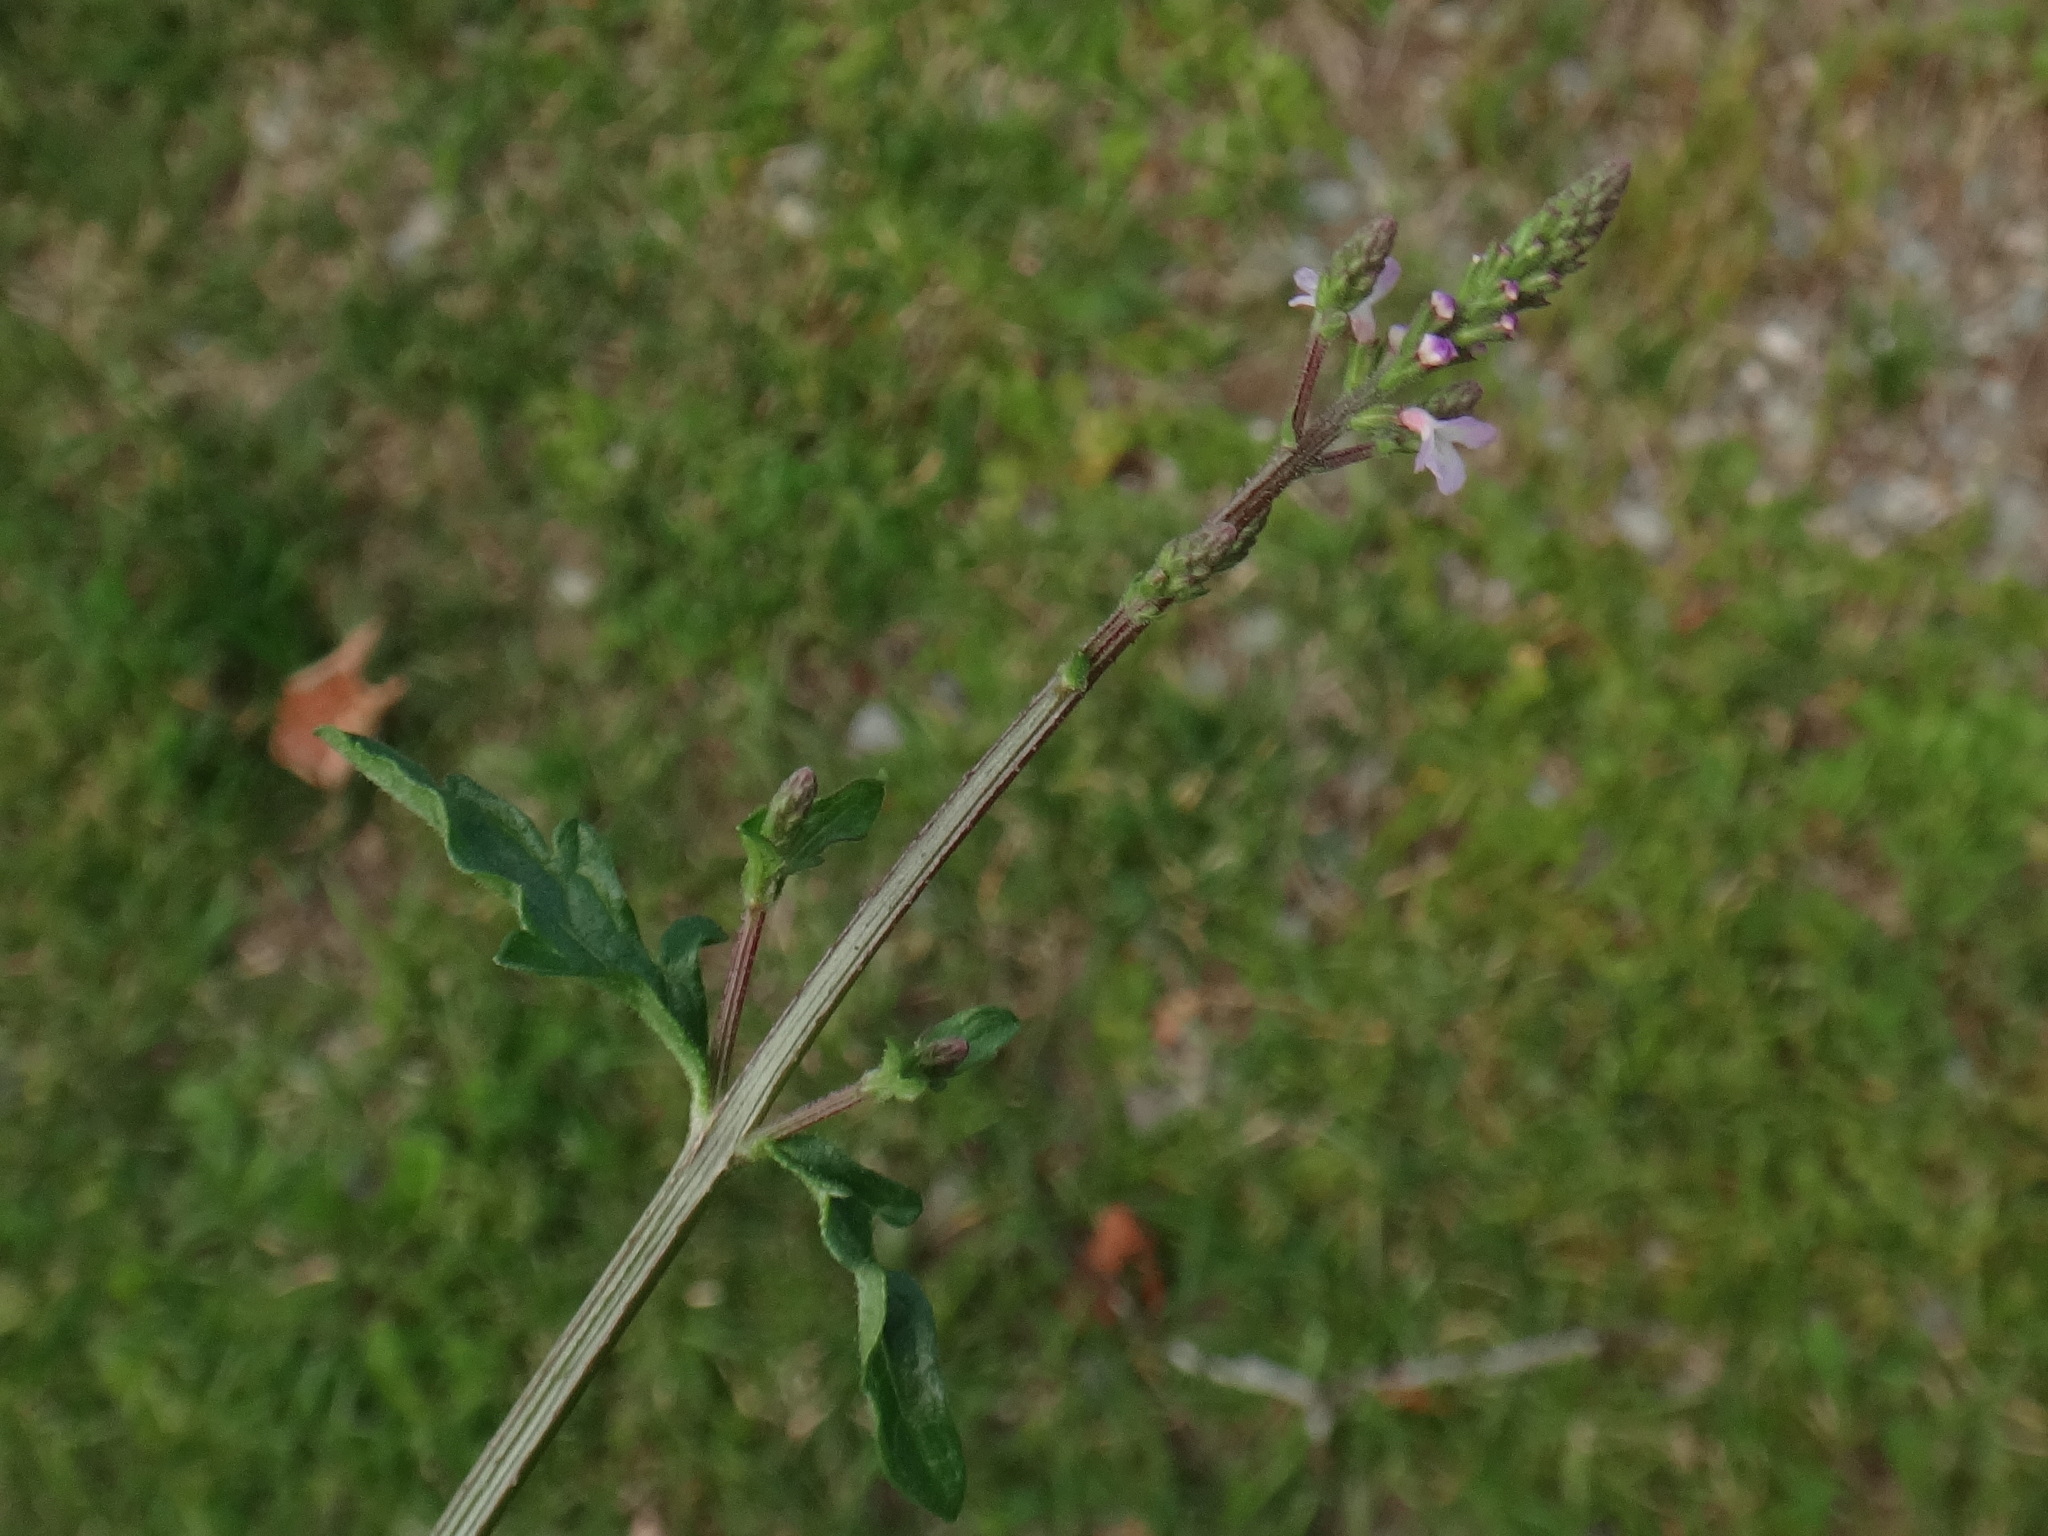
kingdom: Plantae
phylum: Tracheophyta
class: Magnoliopsida
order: Lamiales
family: Verbenaceae
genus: Verbena
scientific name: Verbena officinalis
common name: Vervain
